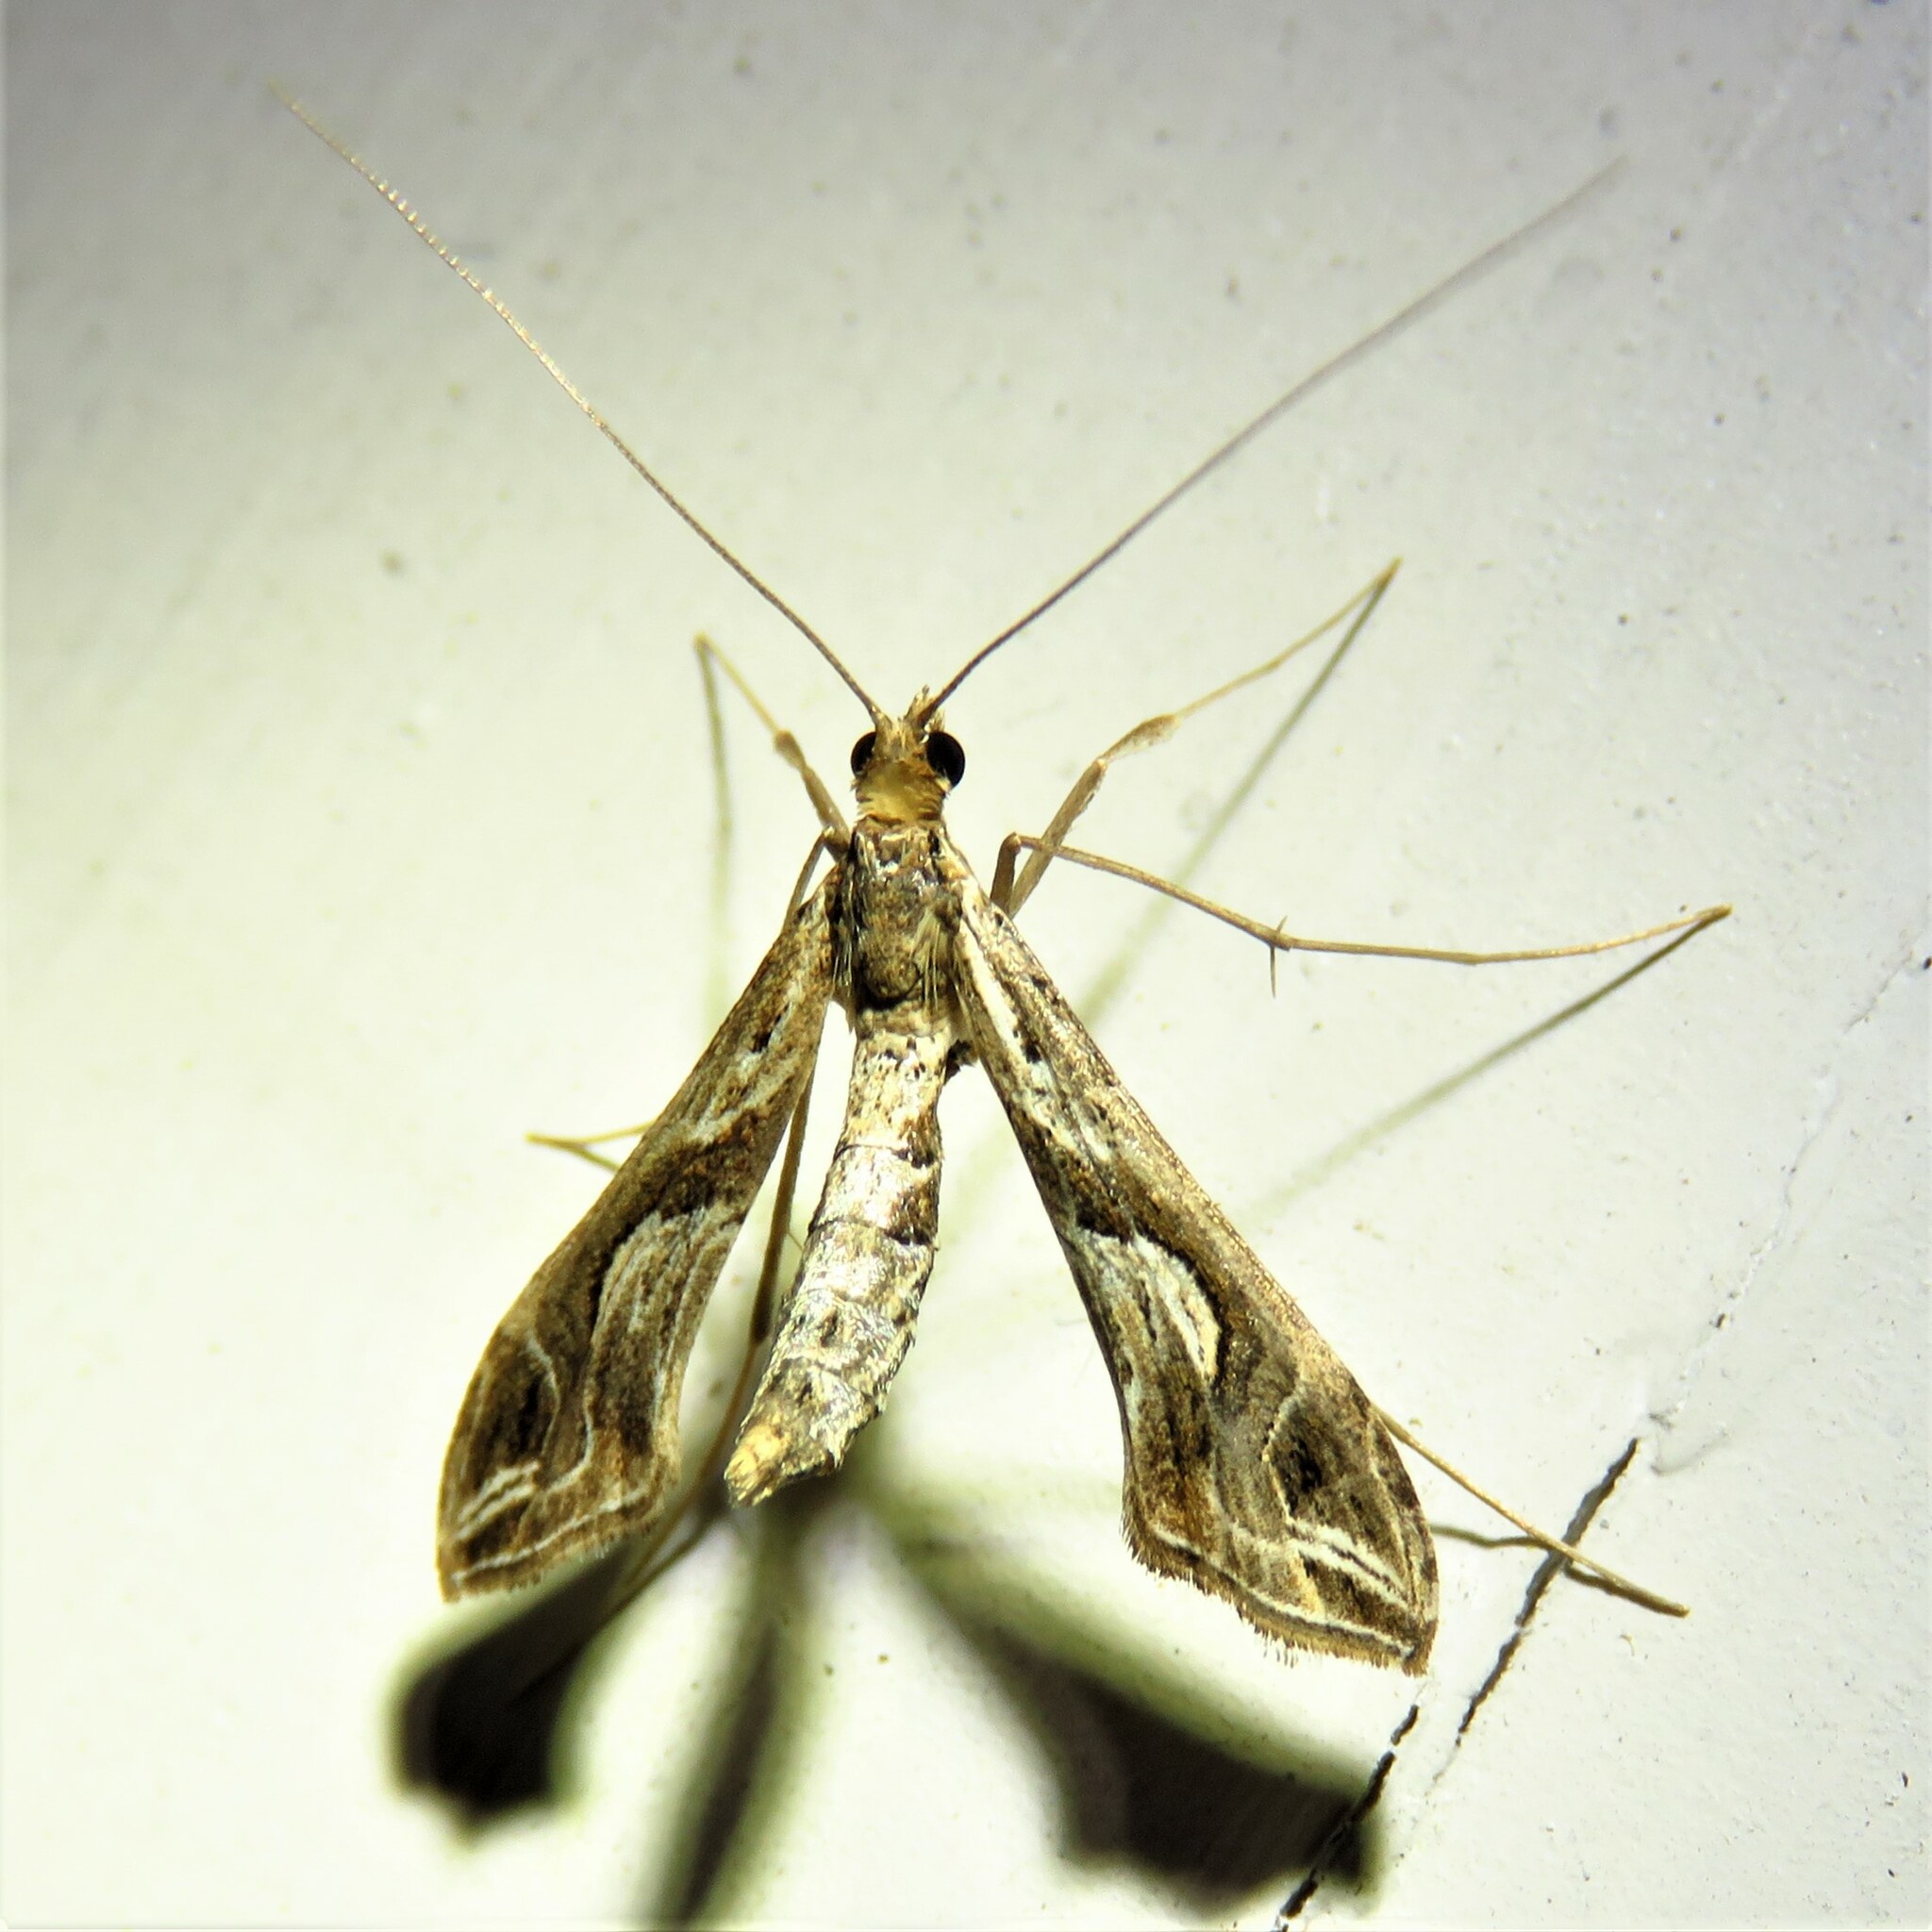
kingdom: Animalia
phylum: Arthropoda
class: Insecta
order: Lepidoptera
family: Crambidae
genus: Lineodes
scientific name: Lineodes integra
